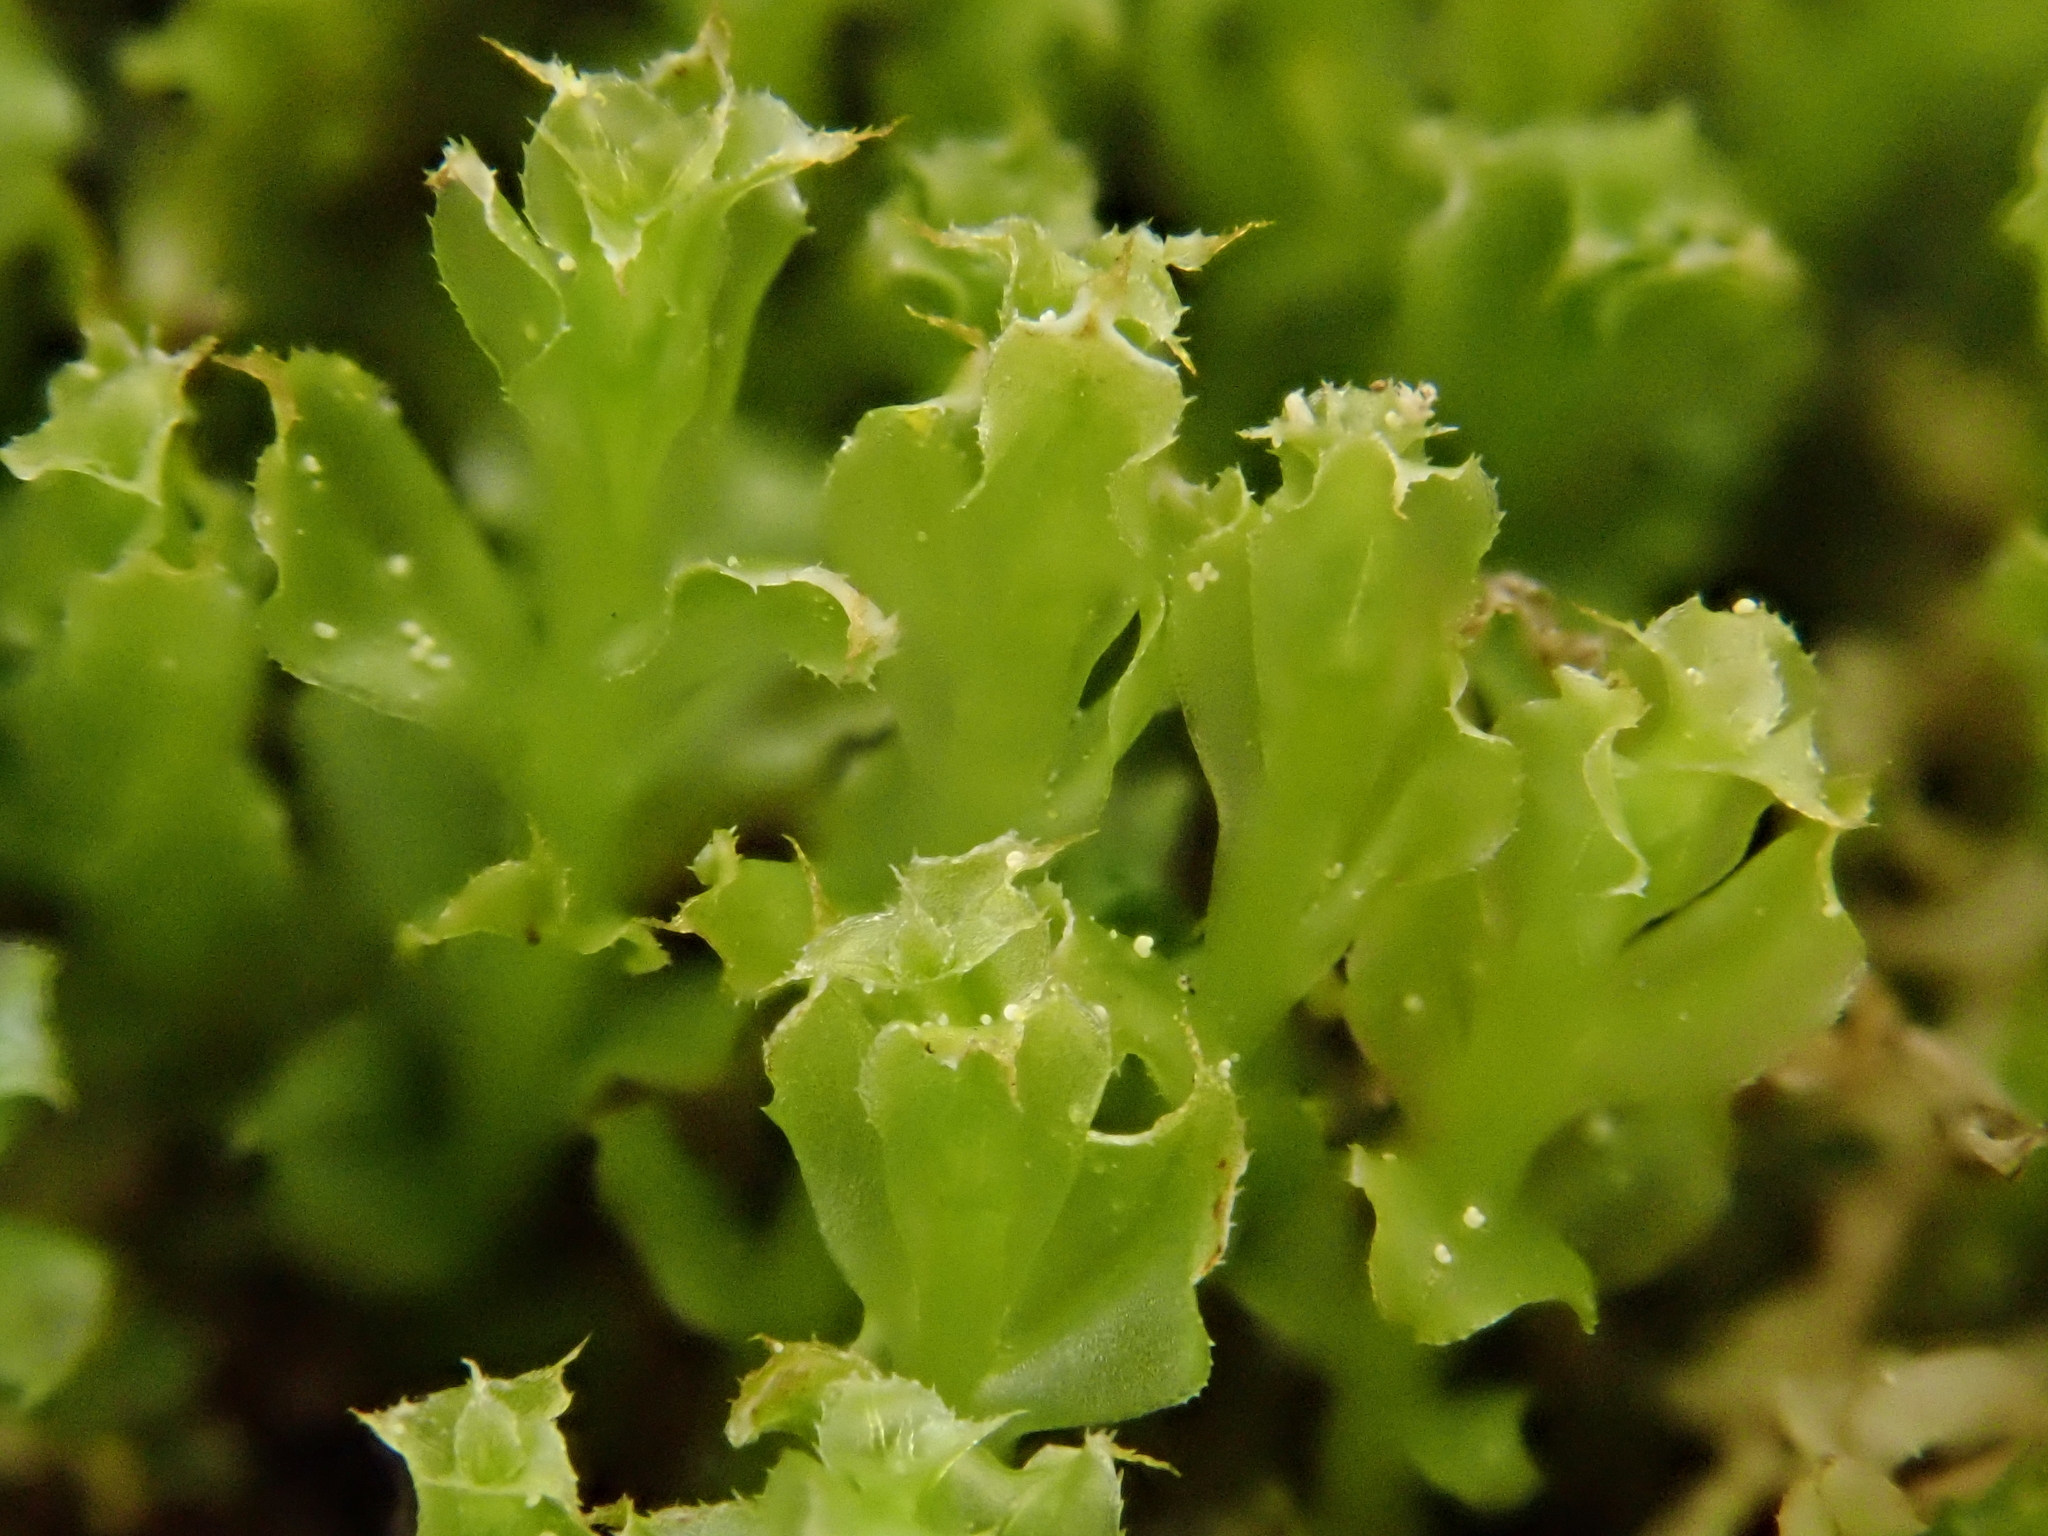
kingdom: Plantae
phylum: Bryophyta
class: Bryopsida
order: Bryales
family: Mniaceae
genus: Plagiomnium
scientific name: Plagiomnium cuspidatum
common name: Woodsy leafy moss
